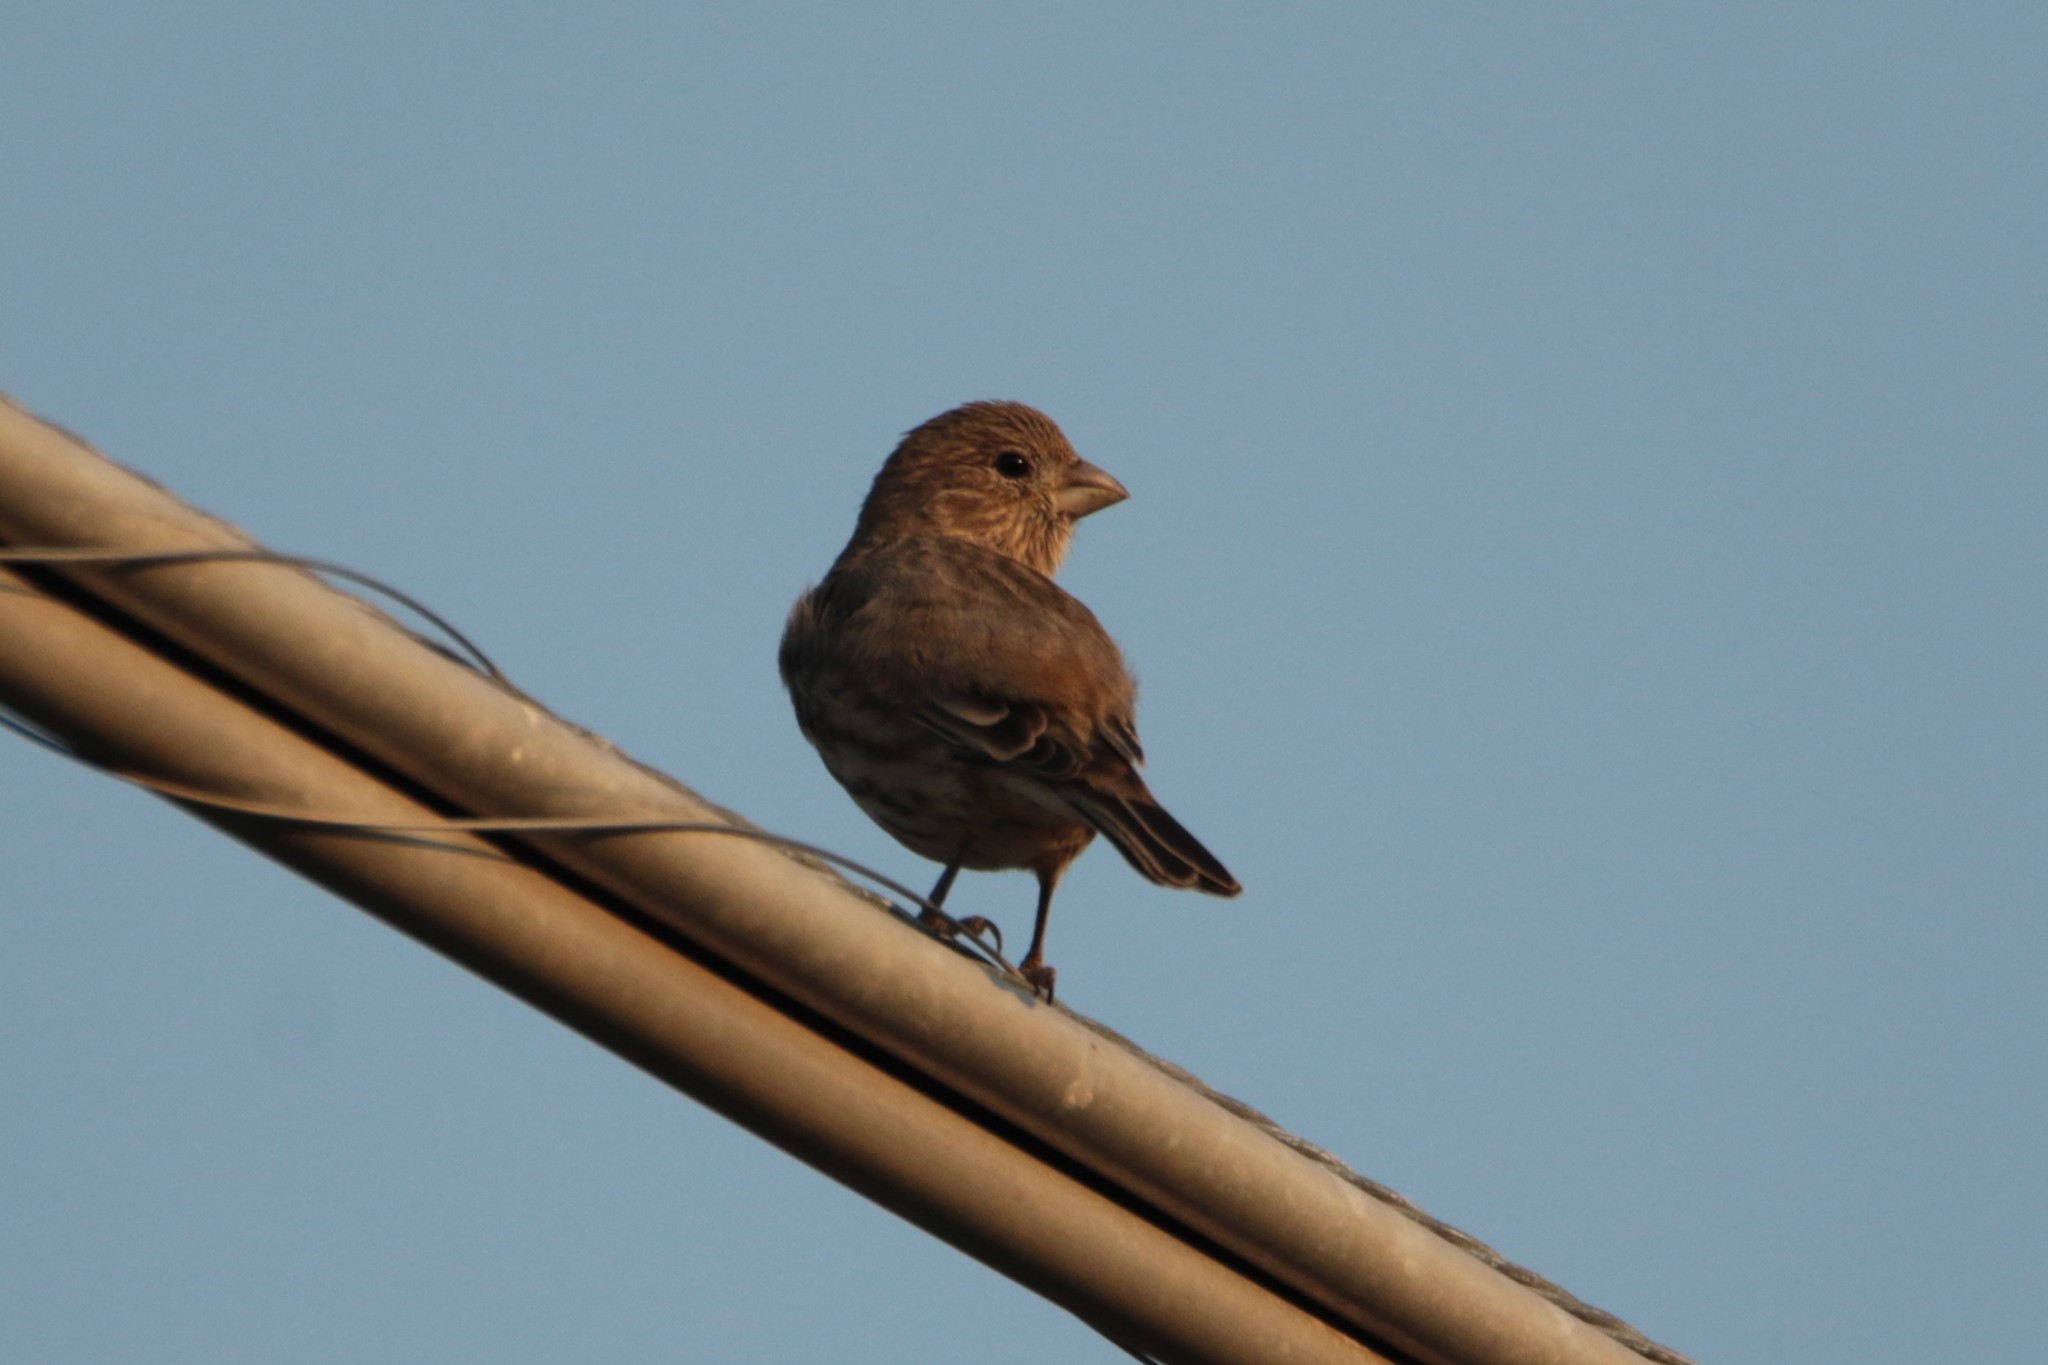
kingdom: Animalia
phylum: Chordata
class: Aves
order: Passeriformes
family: Fringillidae
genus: Haemorhous
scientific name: Haemorhous mexicanus
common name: House finch
